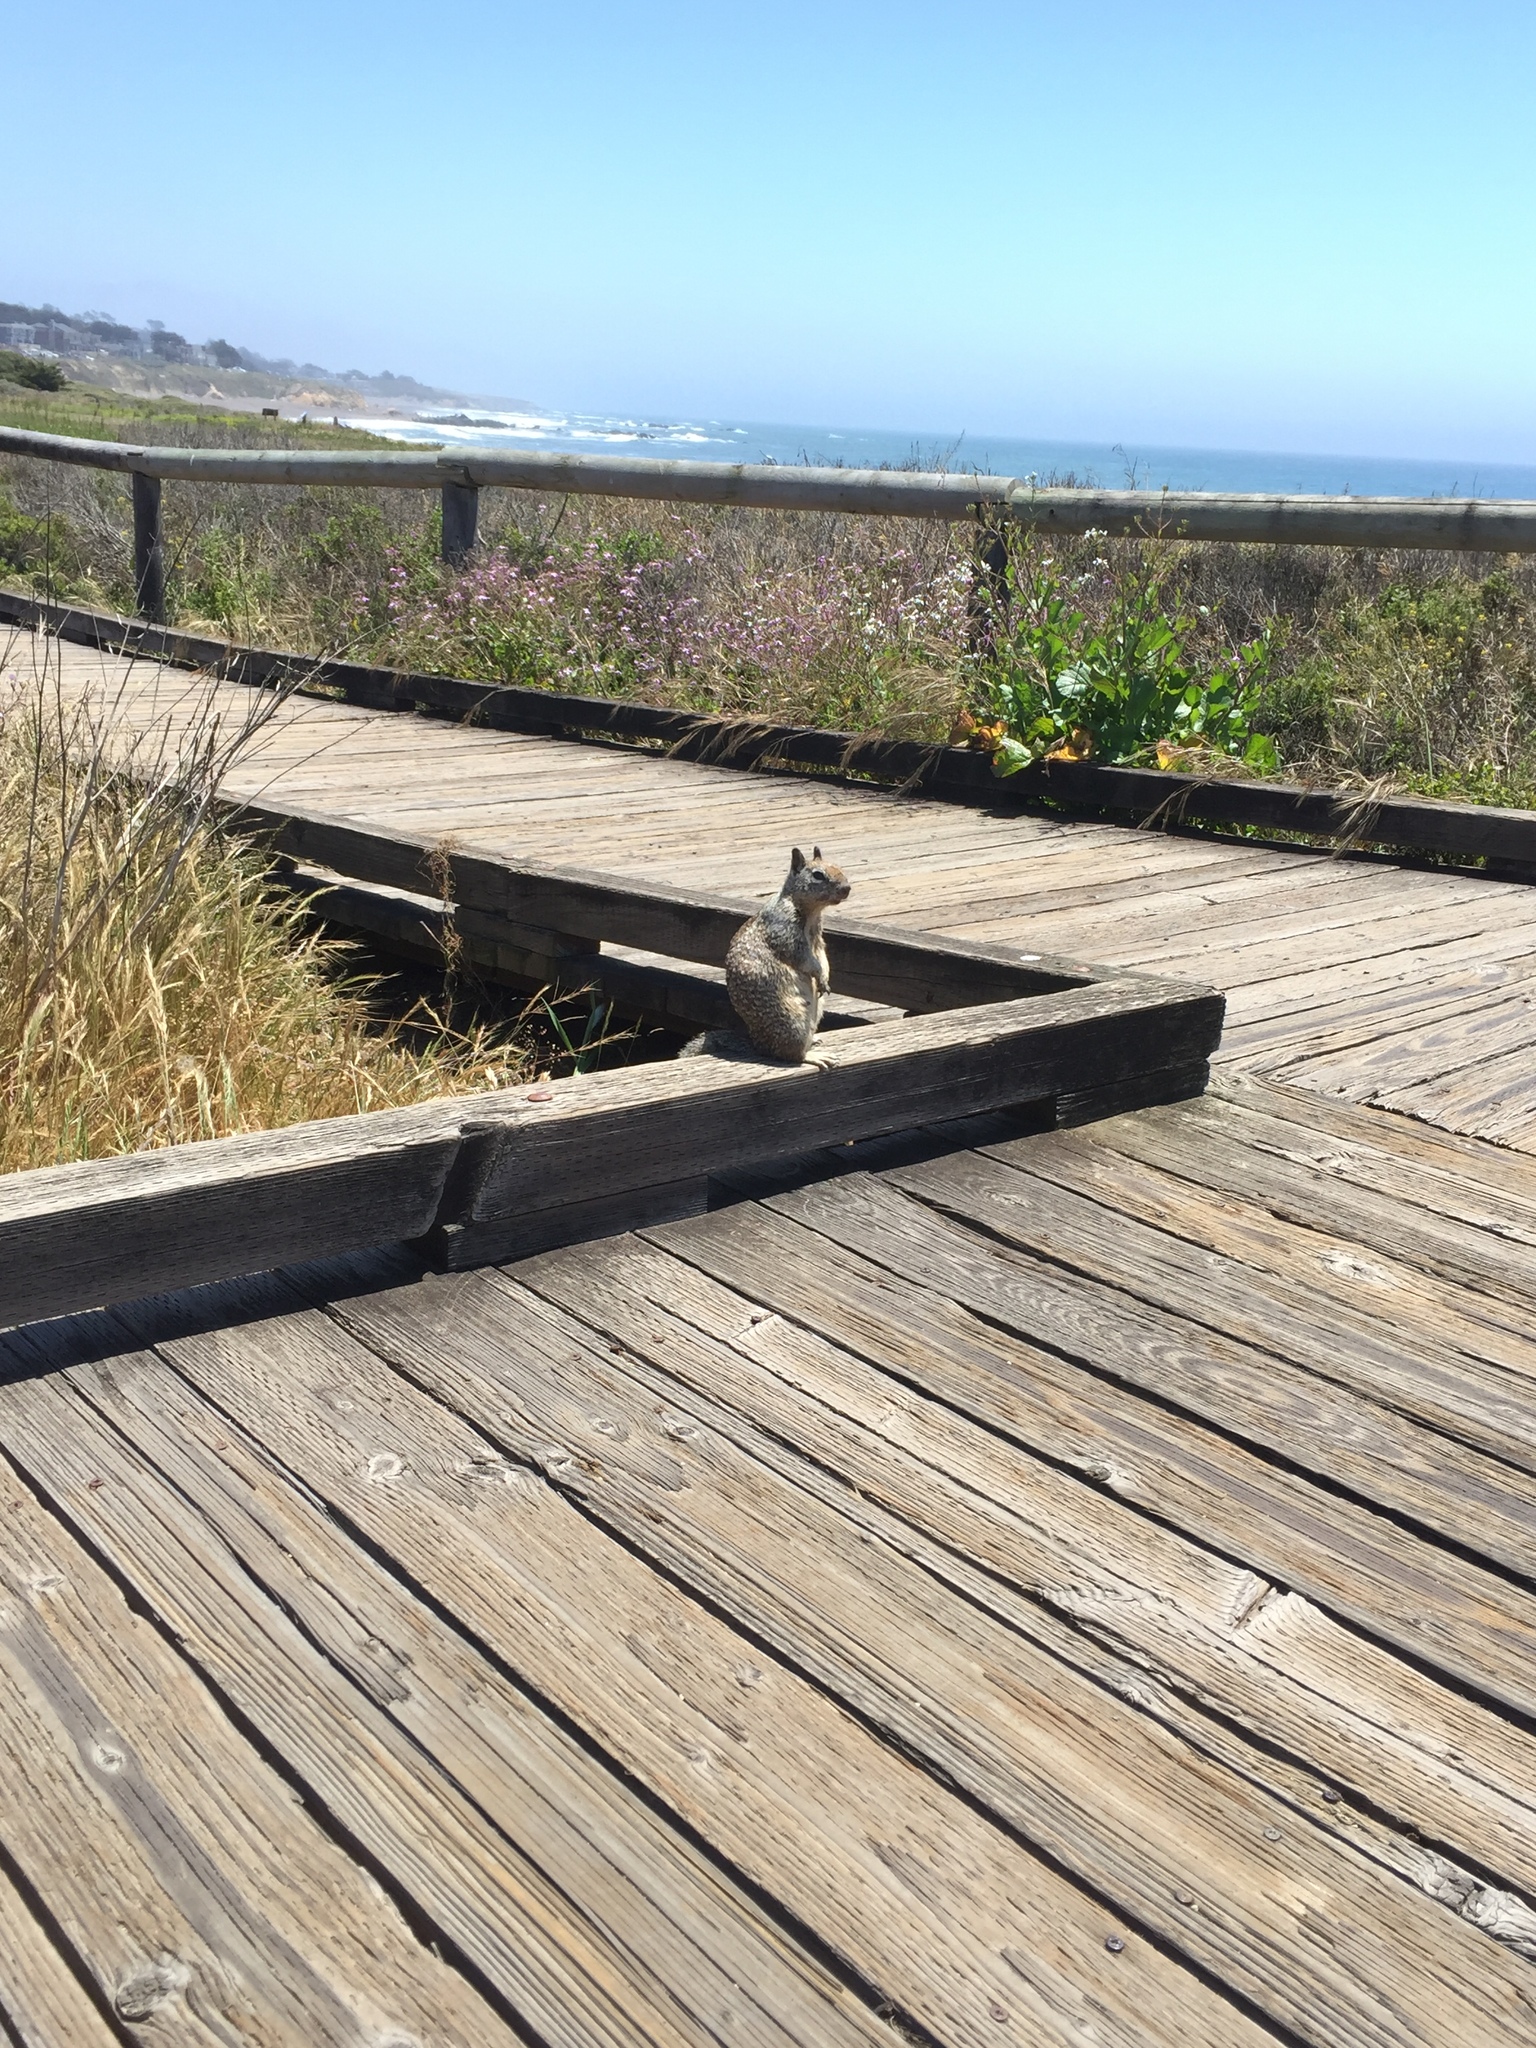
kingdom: Animalia
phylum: Chordata
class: Mammalia
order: Rodentia
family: Sciuridae
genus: Otospermophilus
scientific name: Otospermophilus beecheyi
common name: California ground squirrel
